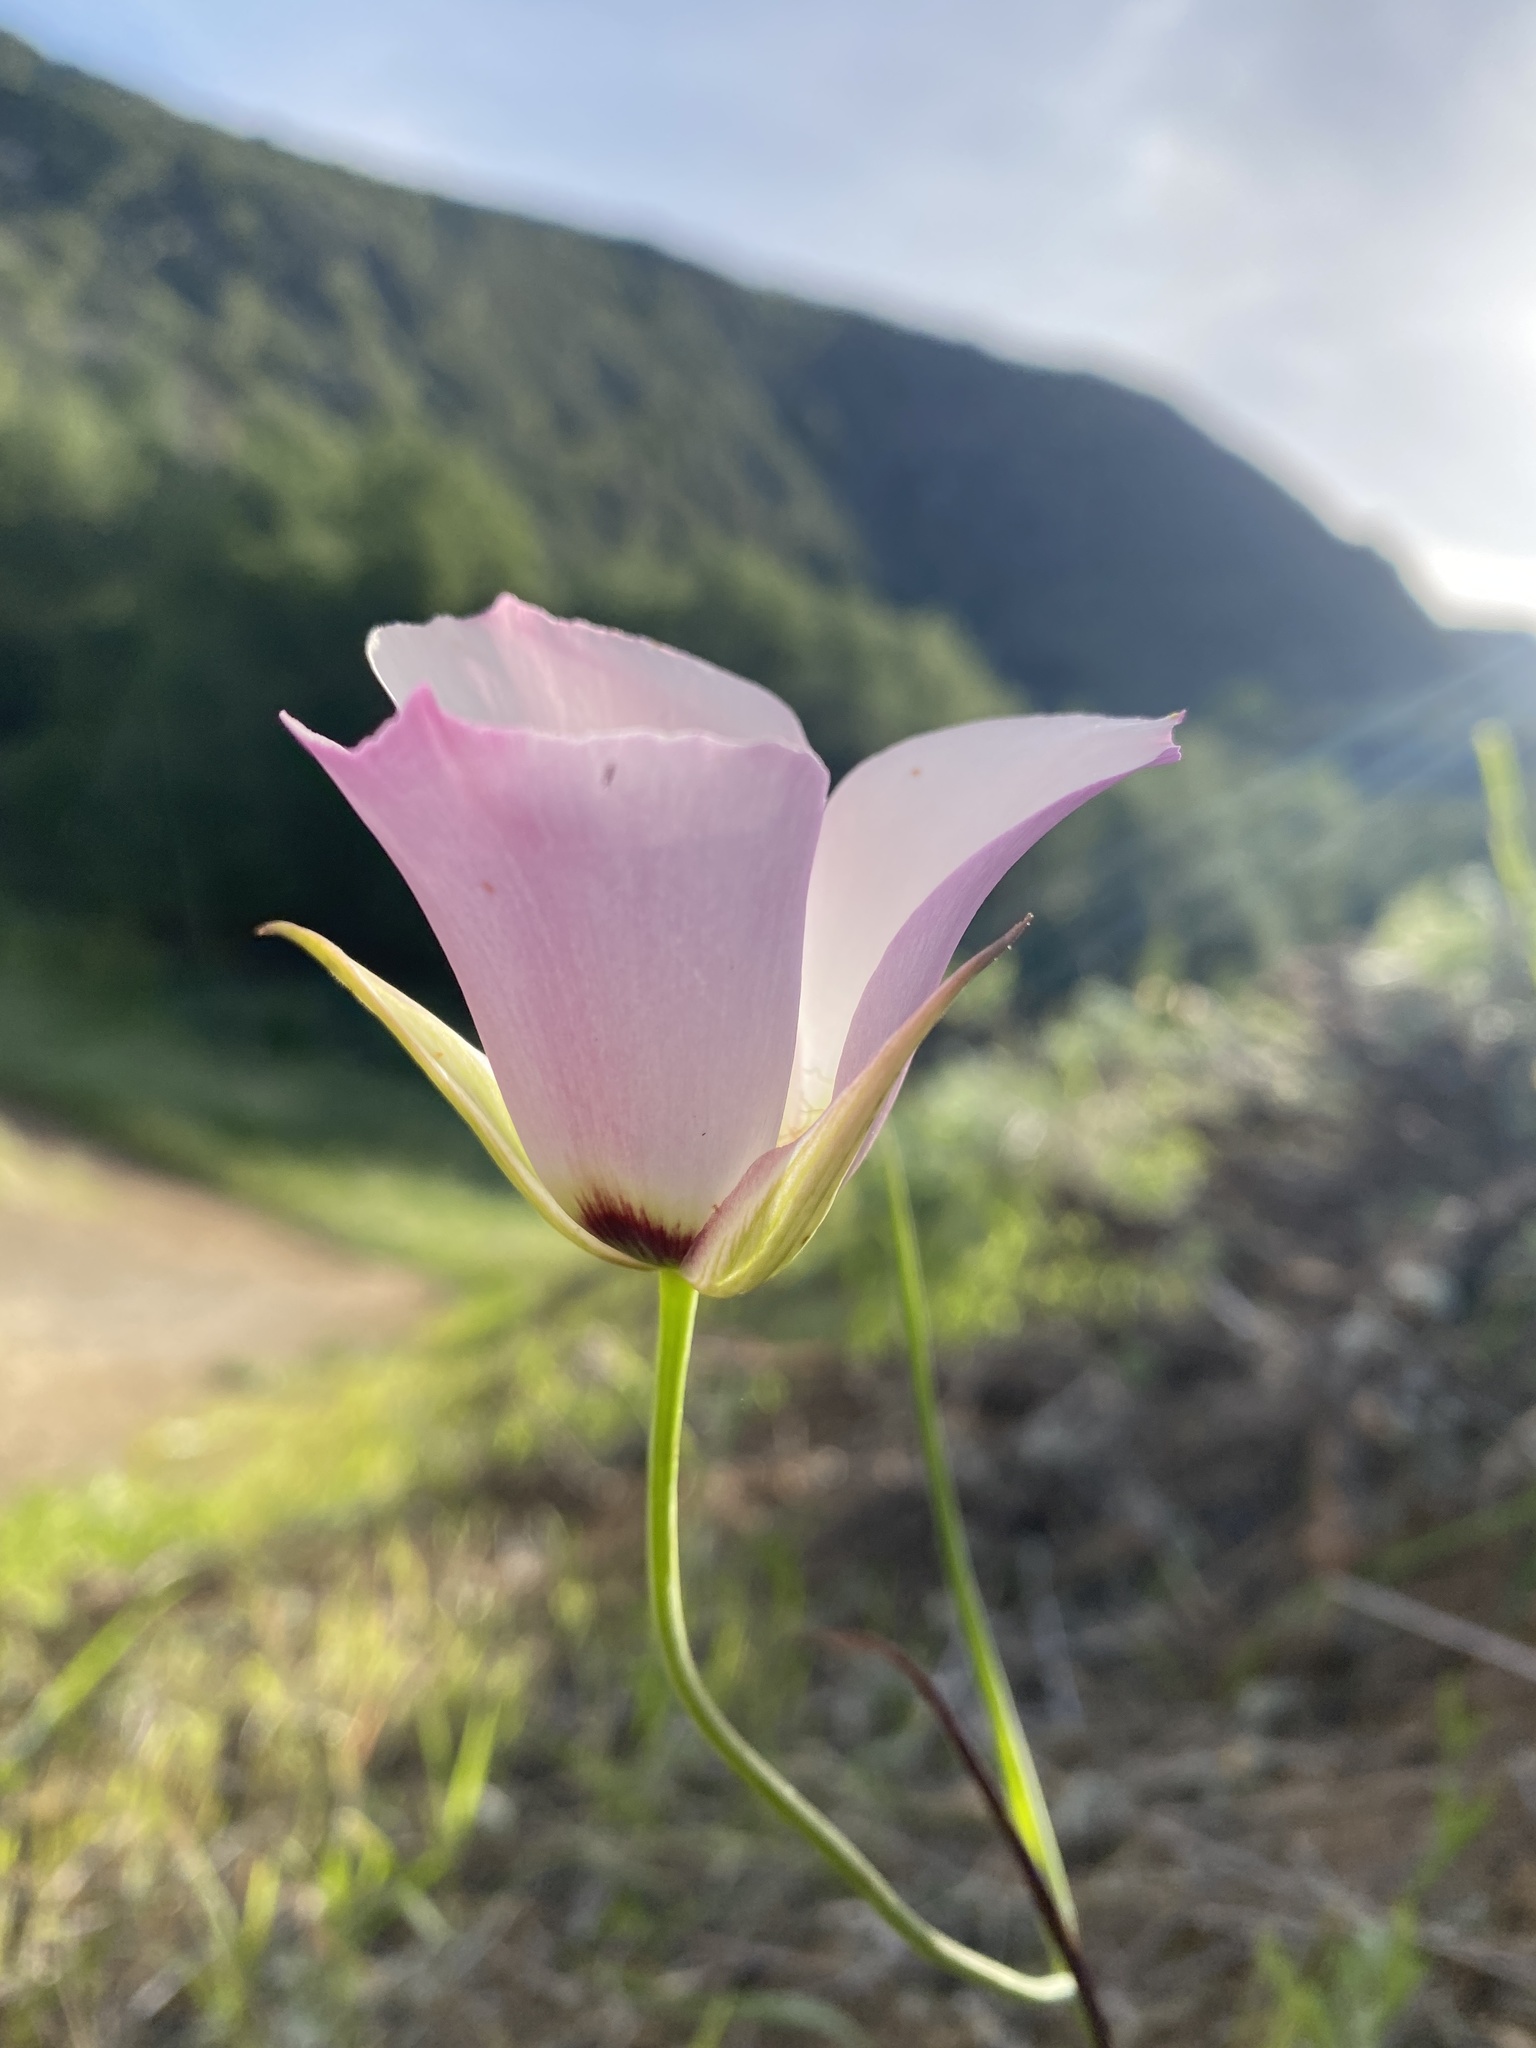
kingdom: Plantae
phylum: Tracheophyta
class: Liliopsida
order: Liliales
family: Liliaceae
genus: Calochortus
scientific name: Calochortus catalinae
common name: Catalina mariposa-lily
